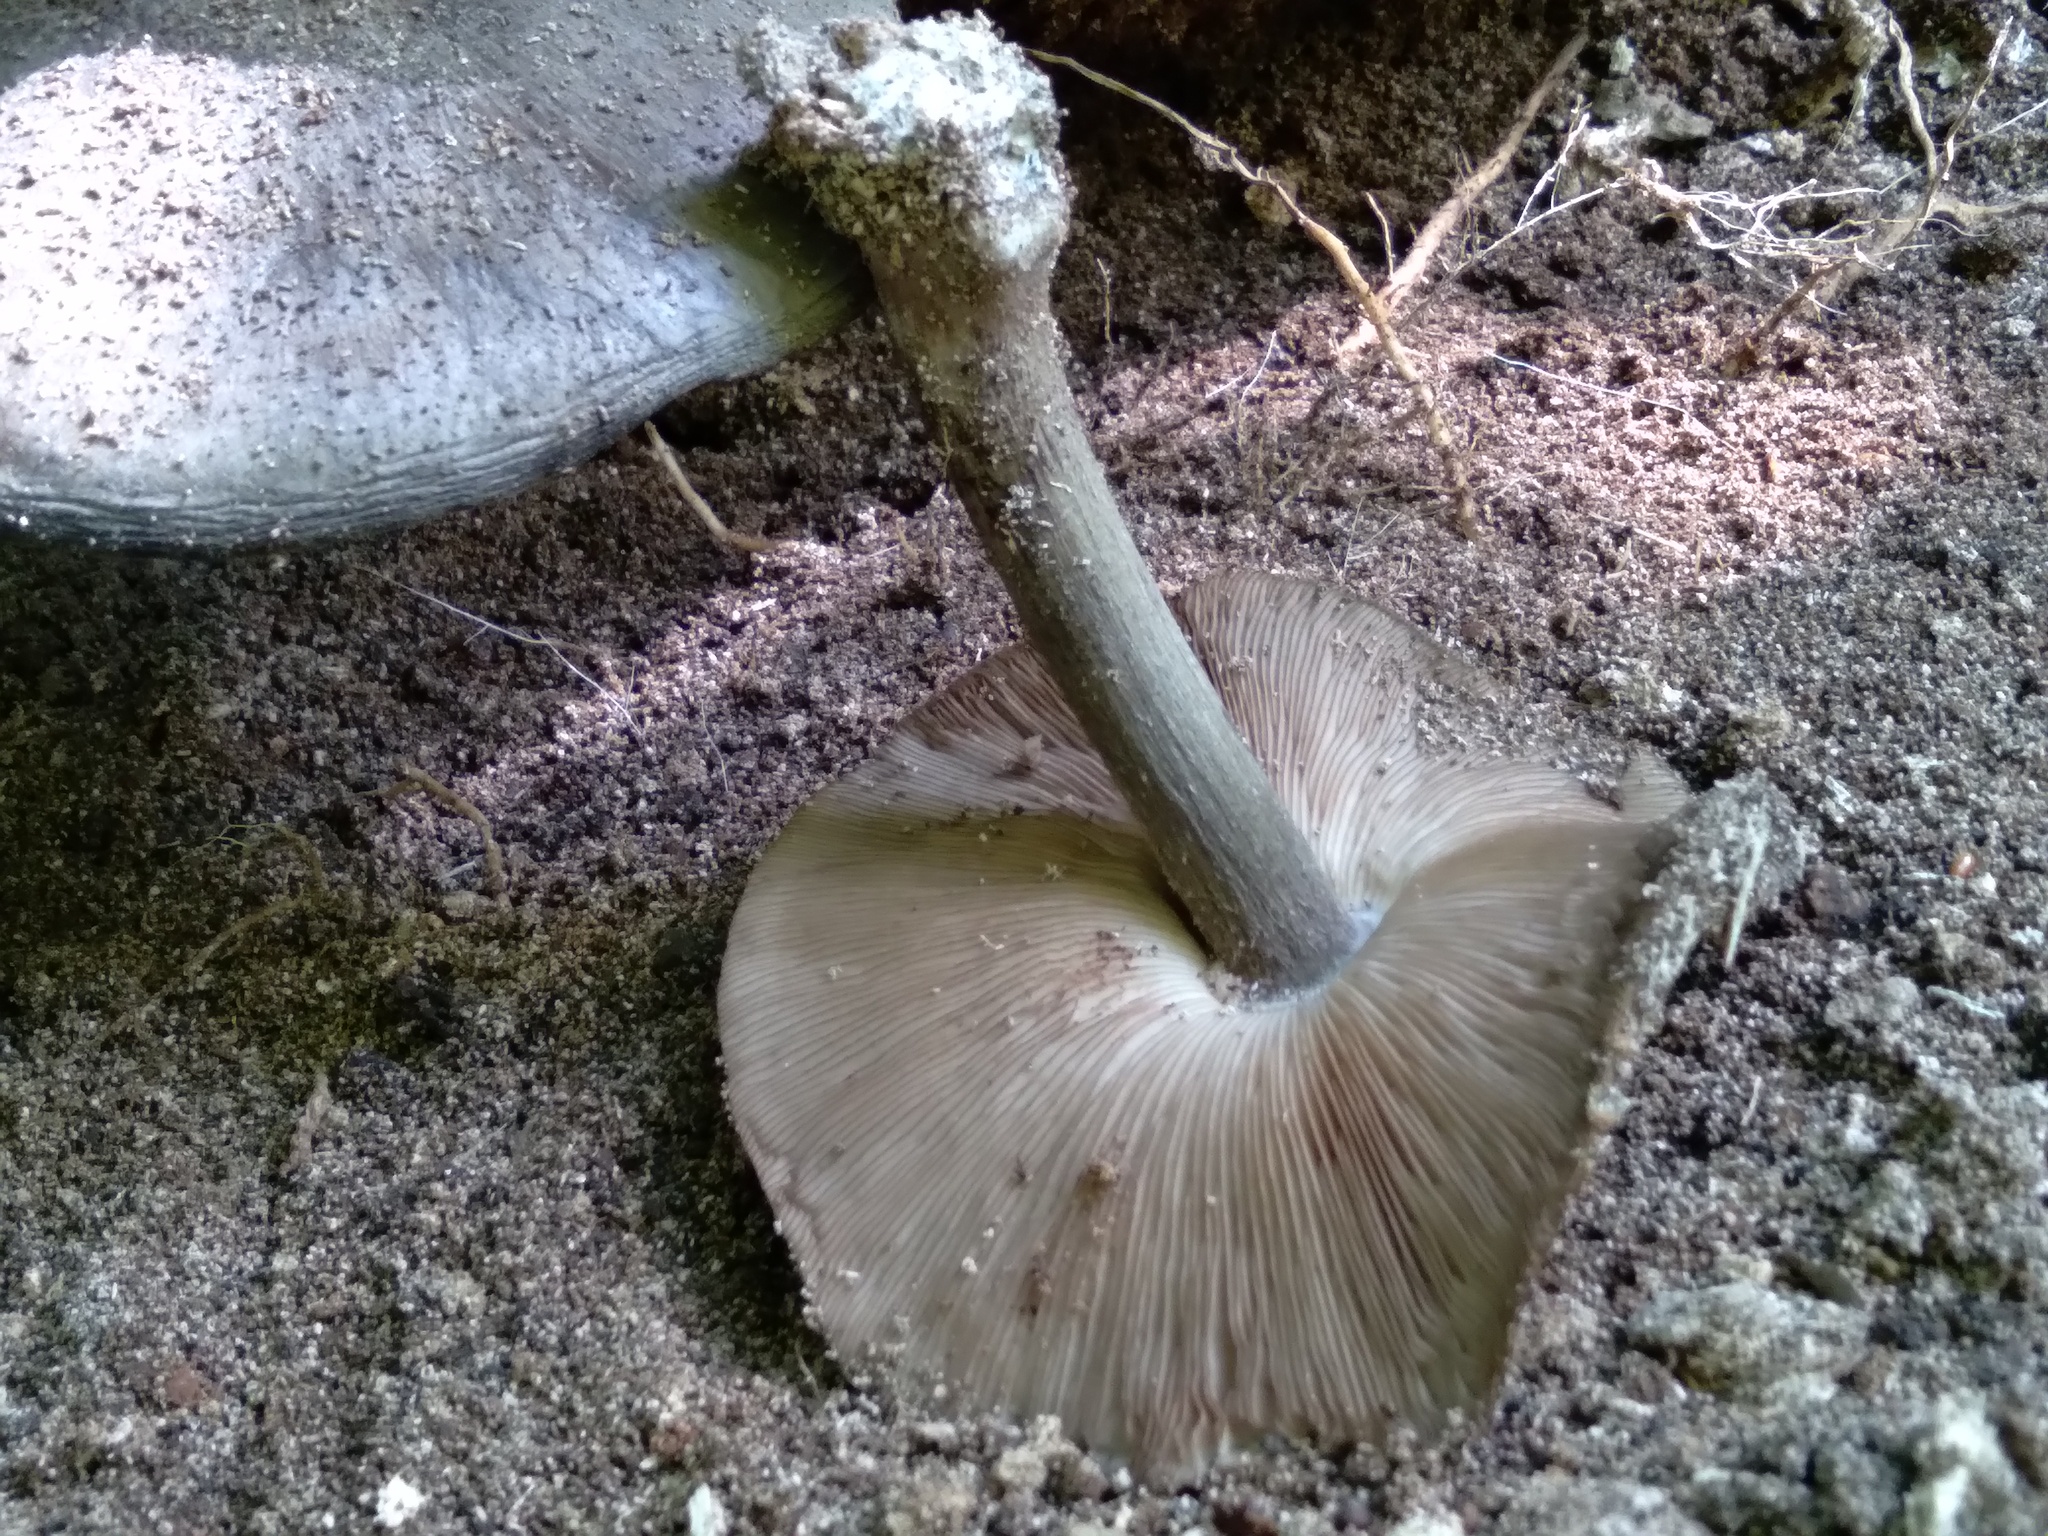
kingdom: Fungi
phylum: Basidiomycota
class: Agaricomycetes
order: Agaricales
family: Pluteaceae
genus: Pluteus
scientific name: Pluteus velutinornatus
